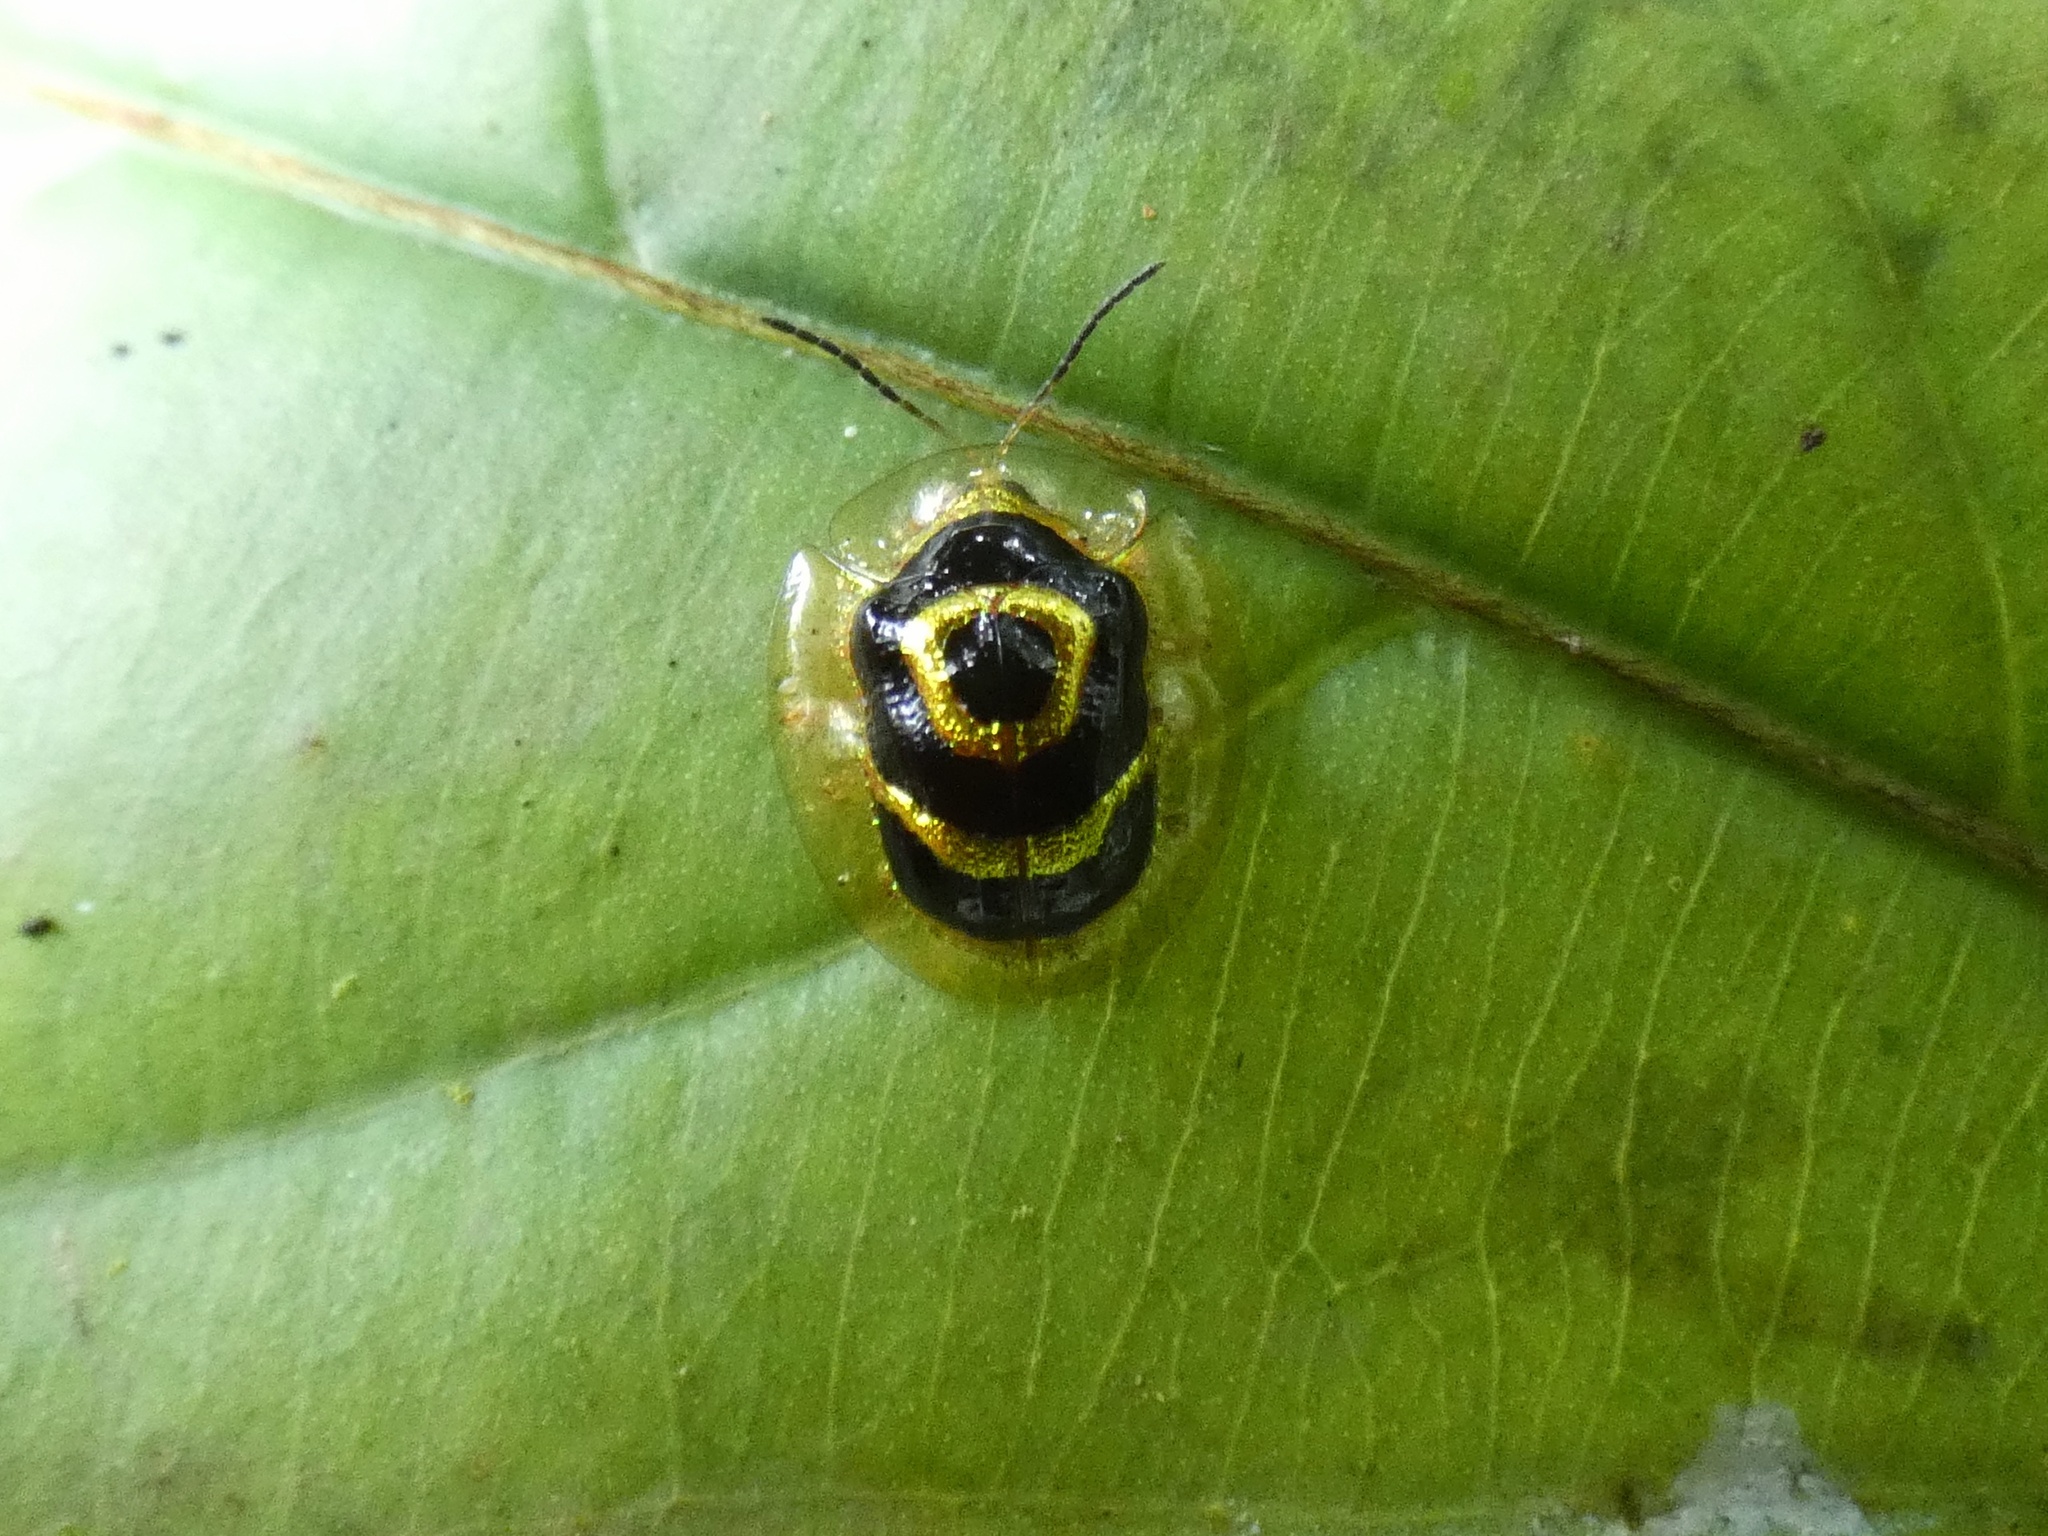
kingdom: Animalia
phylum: Arthropoda
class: Insecta
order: Coleoptera
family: Chrysomelidae
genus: Ischnocodia
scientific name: Ischnocodia annulus
